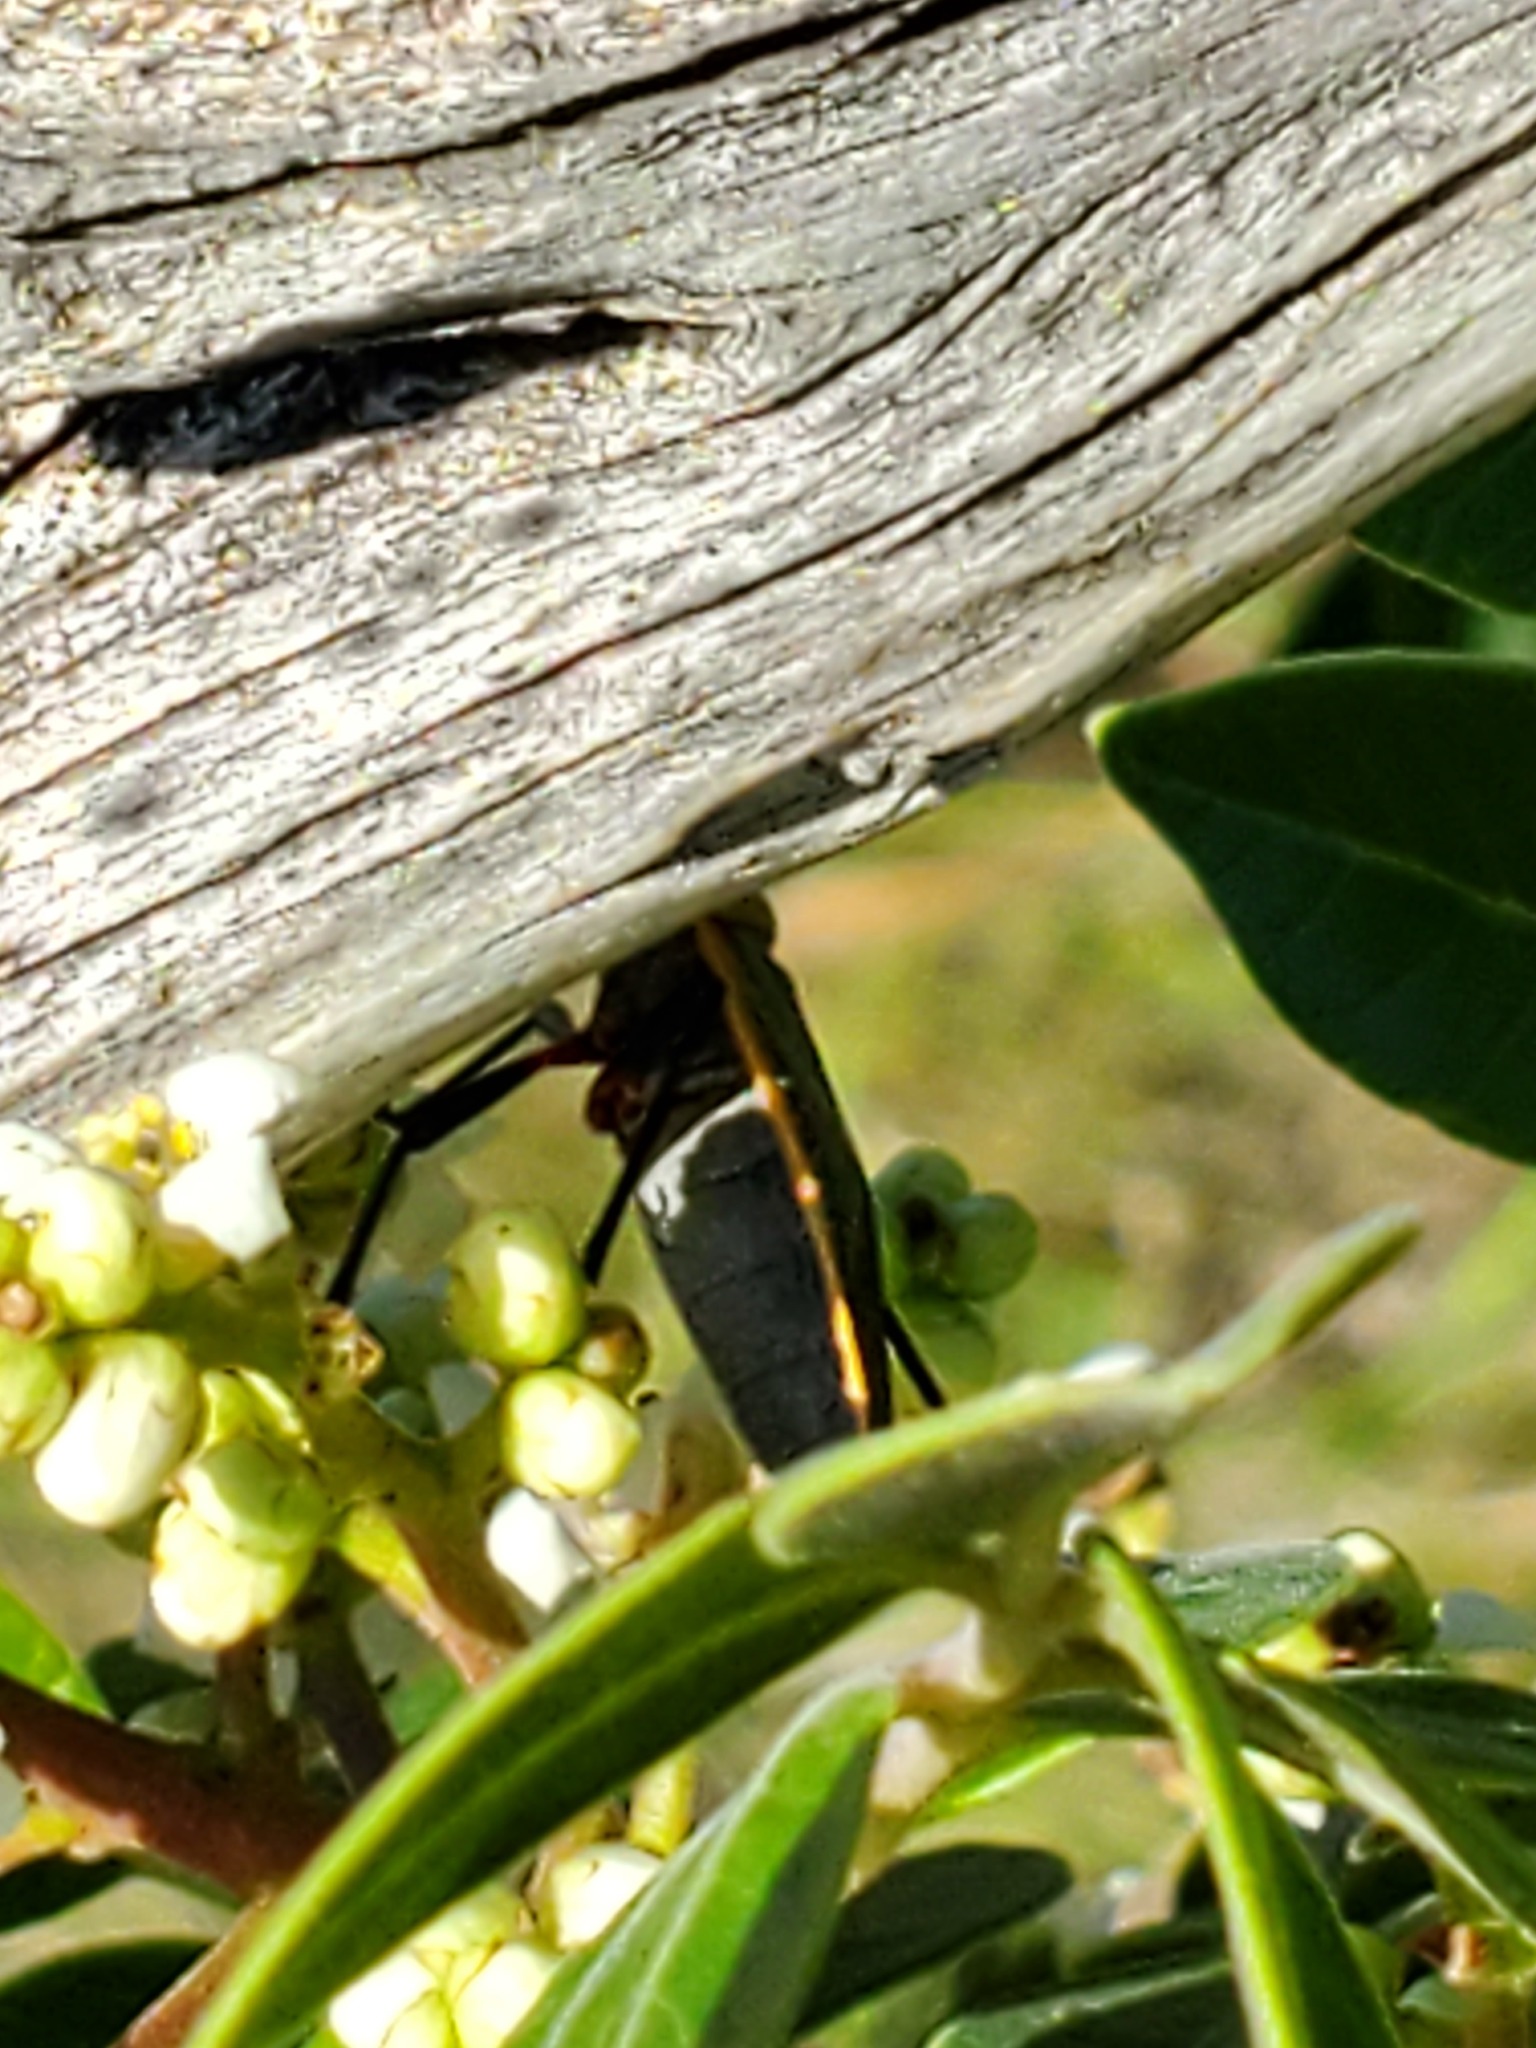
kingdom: Animalia
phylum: Arthropoda
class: Insecta
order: Hemiptera
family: Largidae
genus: Largus
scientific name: Largus succinctus
